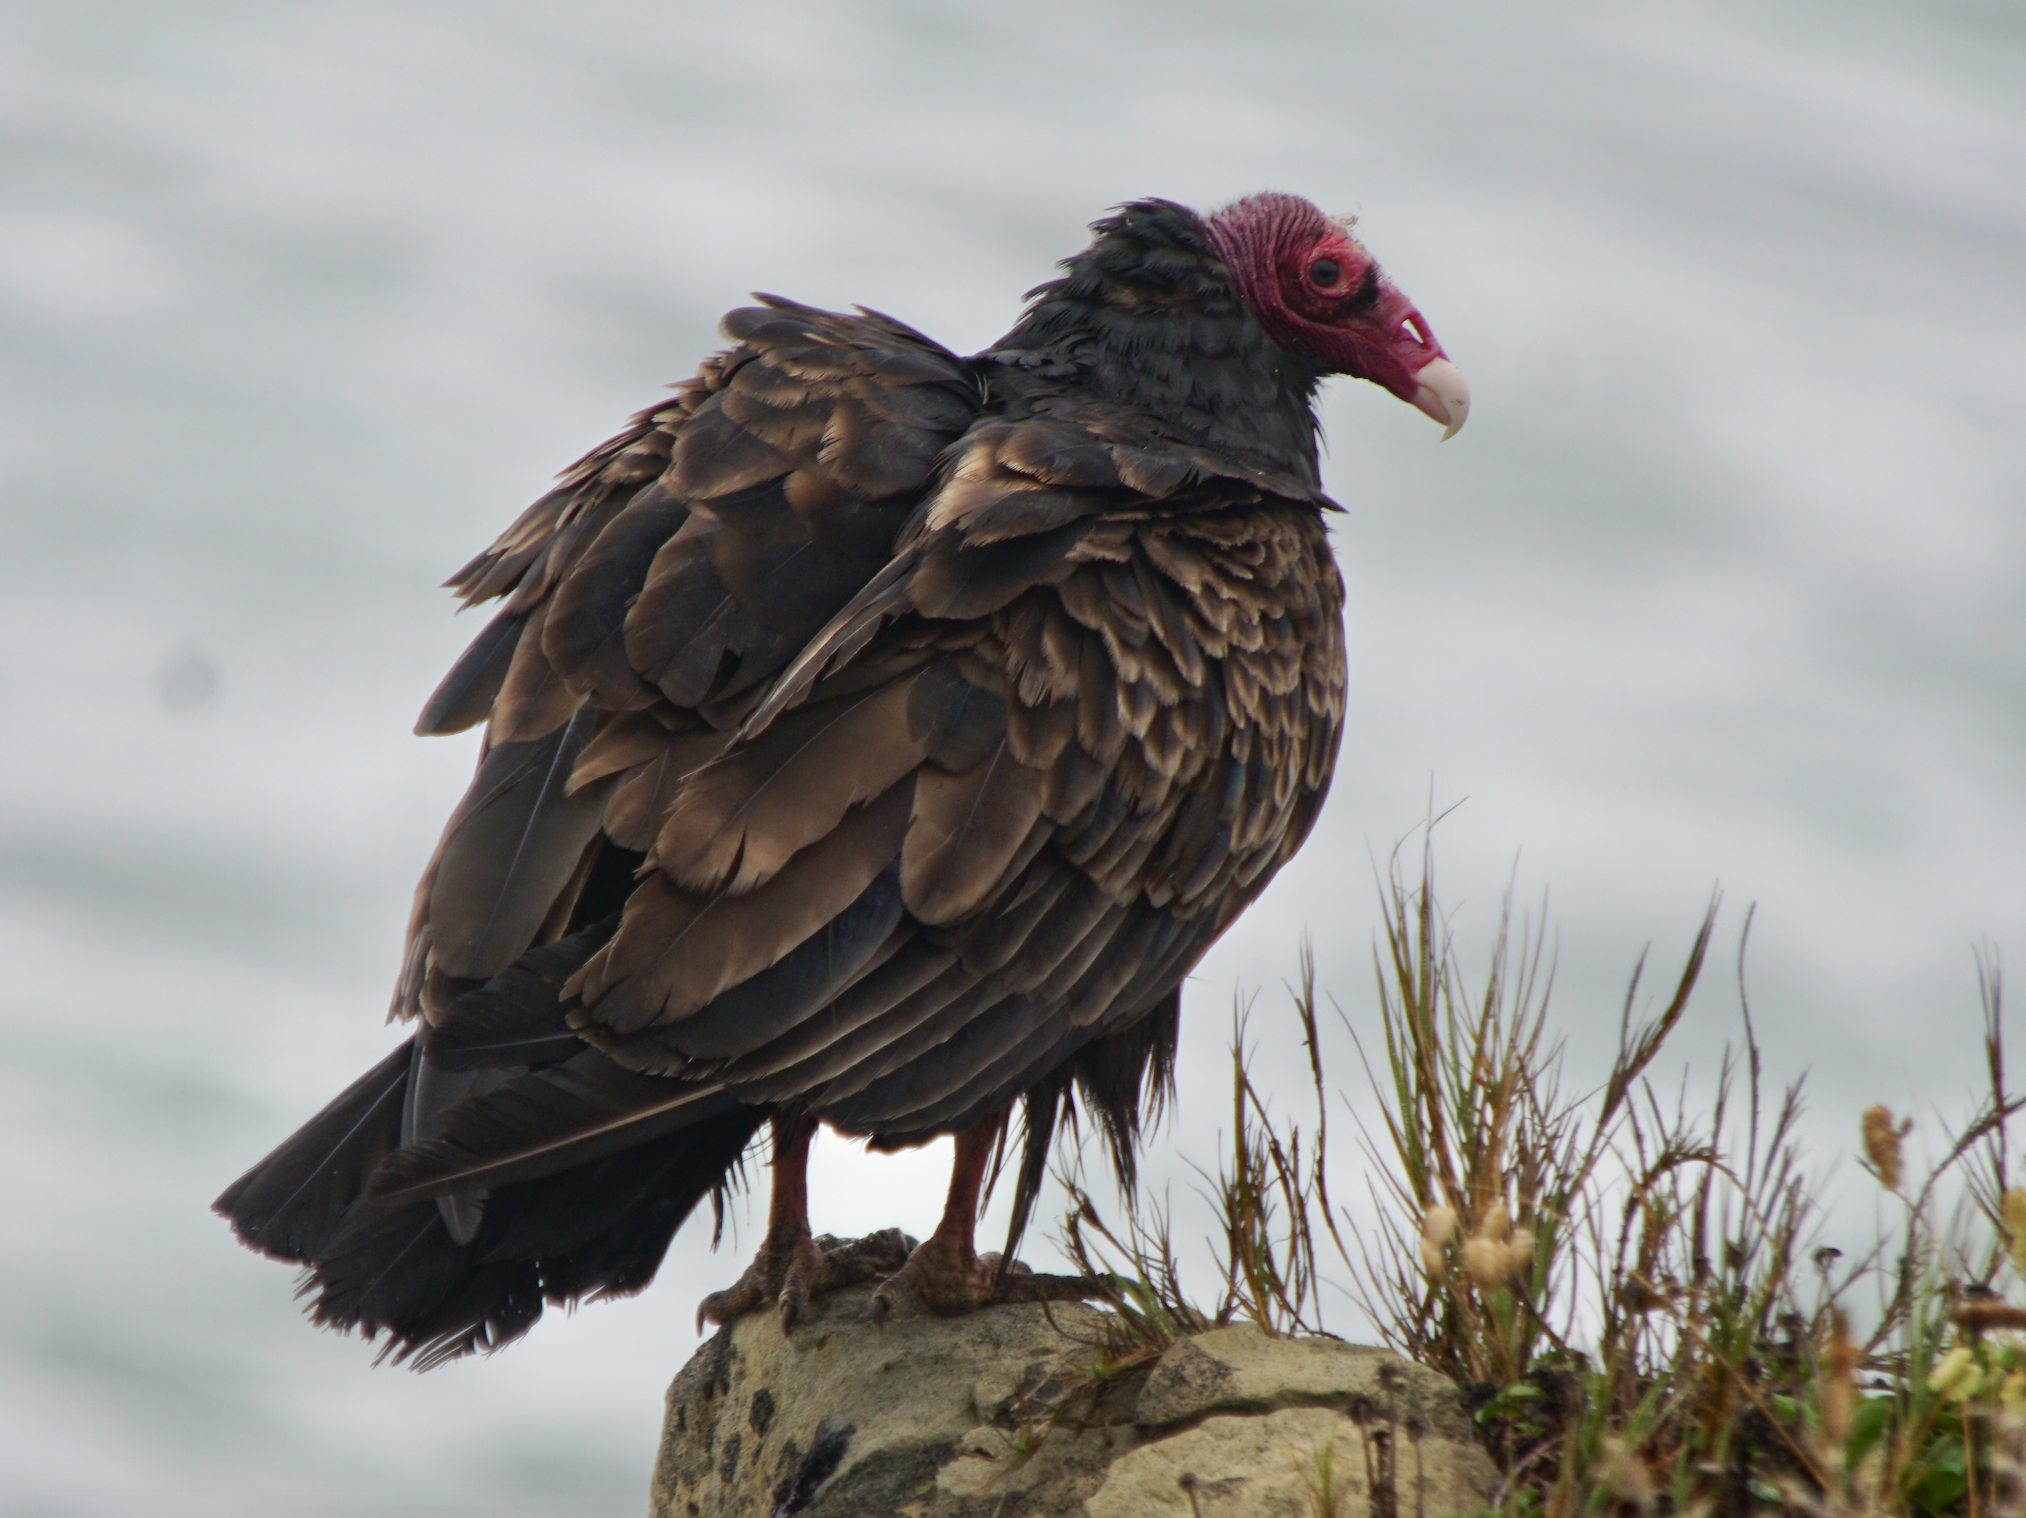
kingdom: Animalia
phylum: Chordata
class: Aves
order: Accipitriformes
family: Cathartidae
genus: Cathartes
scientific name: Cathartes aura
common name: Turkey vulture
